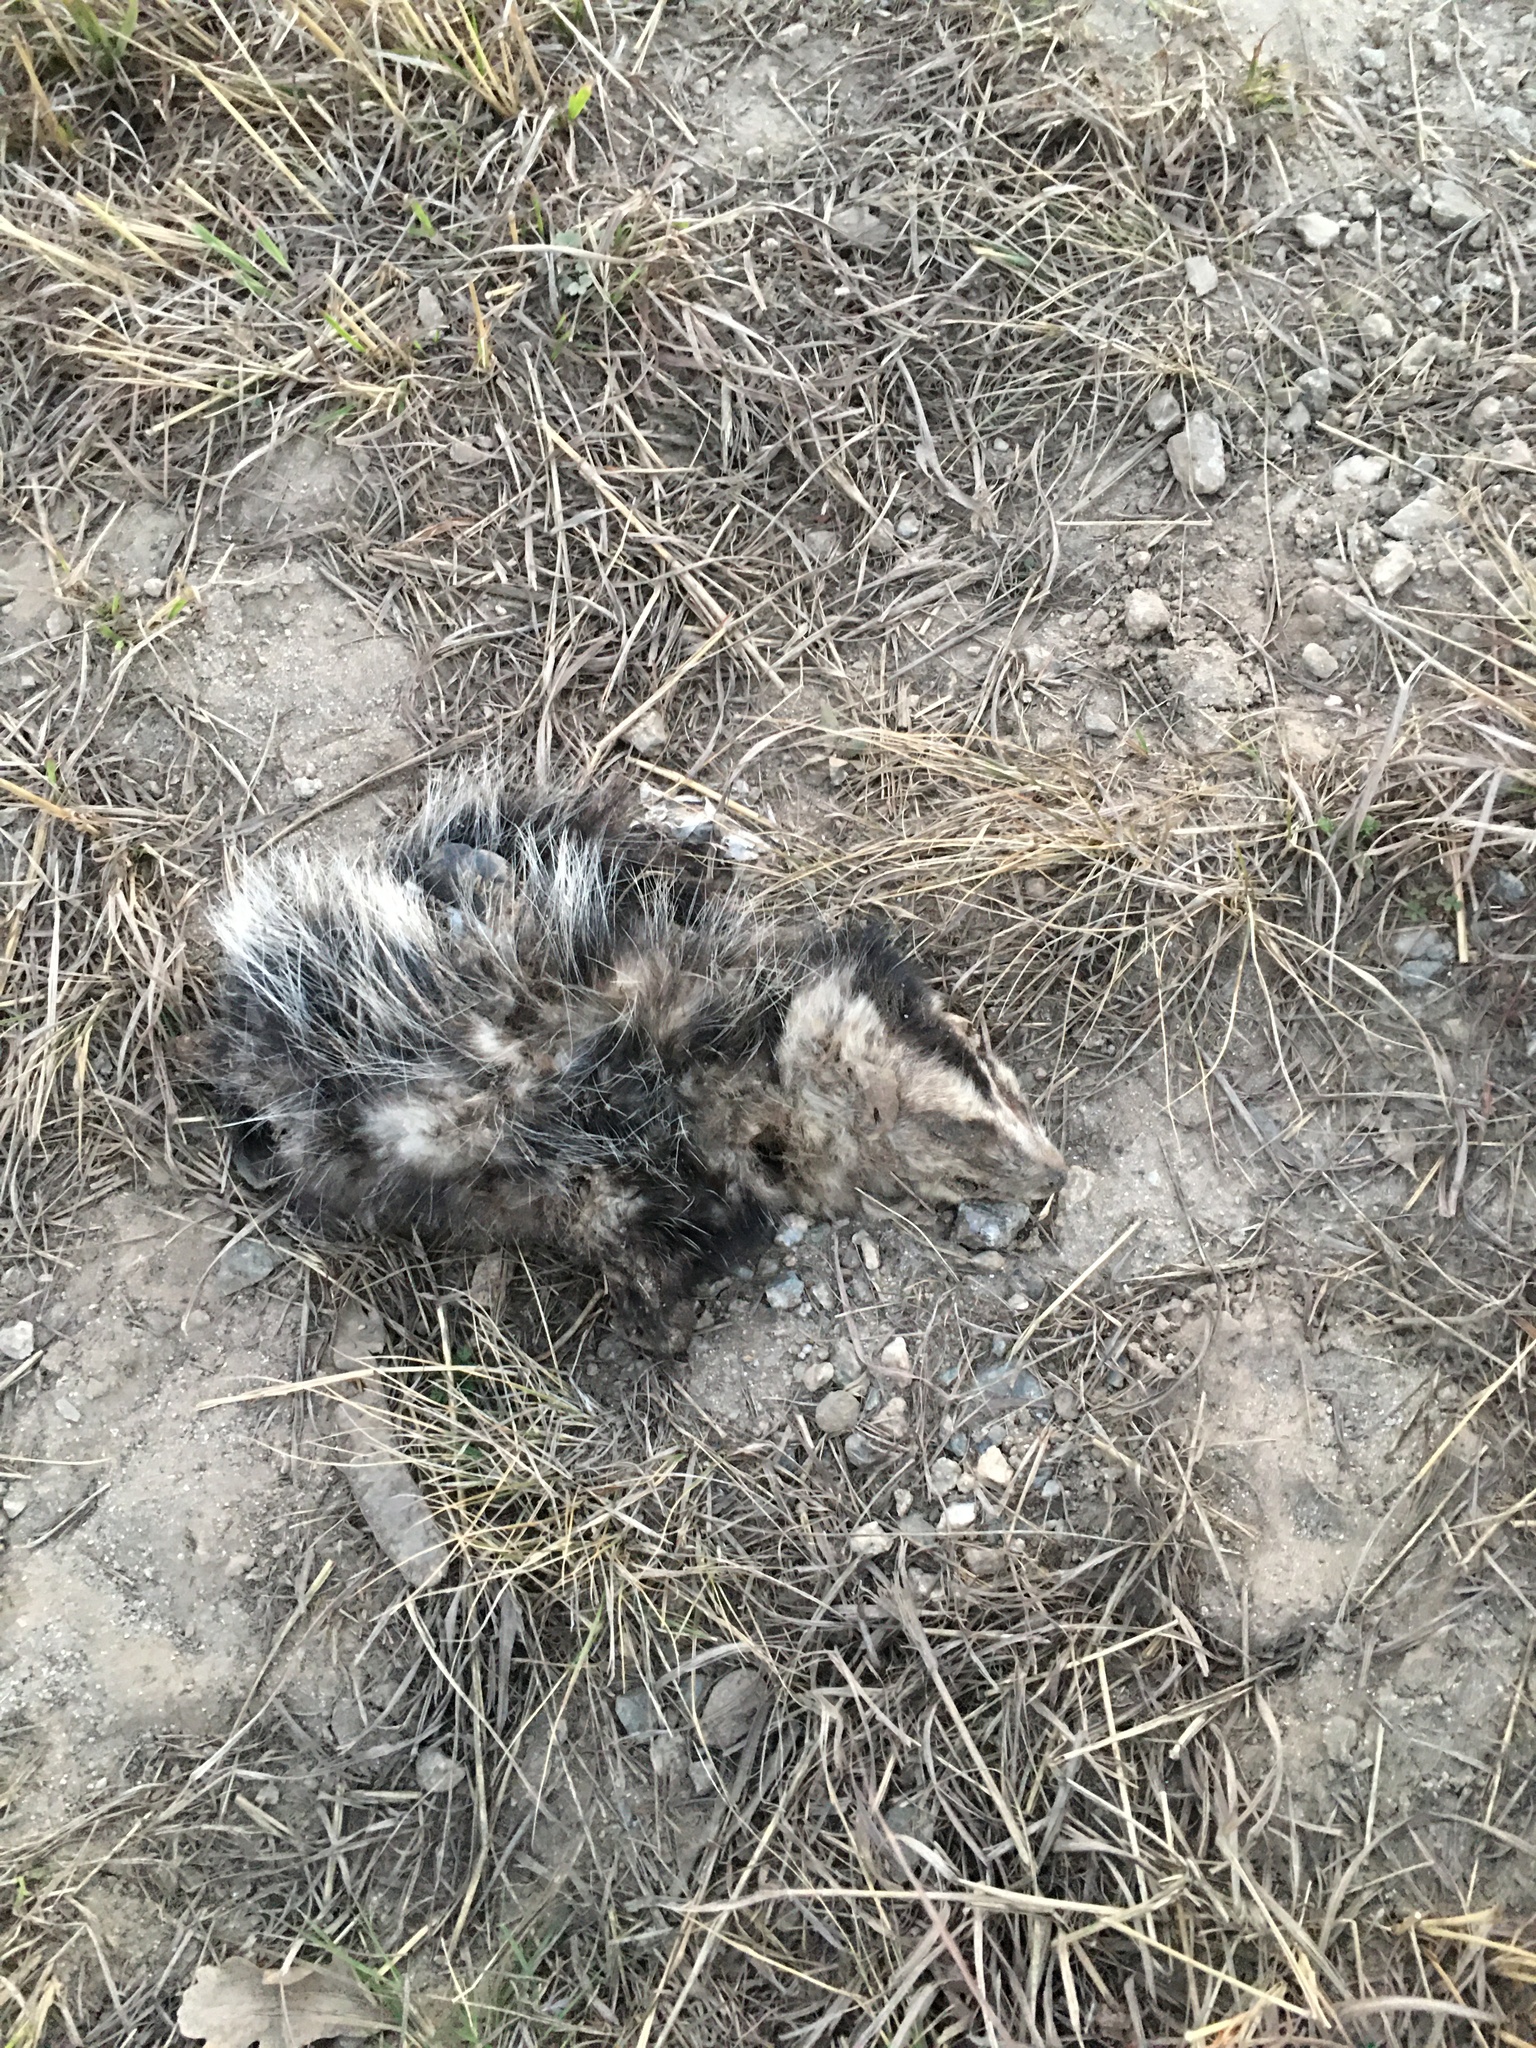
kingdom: Animalia
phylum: Chordata
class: Mammalia
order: Didelphimorphia
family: Didelphidae
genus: Didelphis
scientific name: Didelphis albiventris
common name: White-eared opossum
